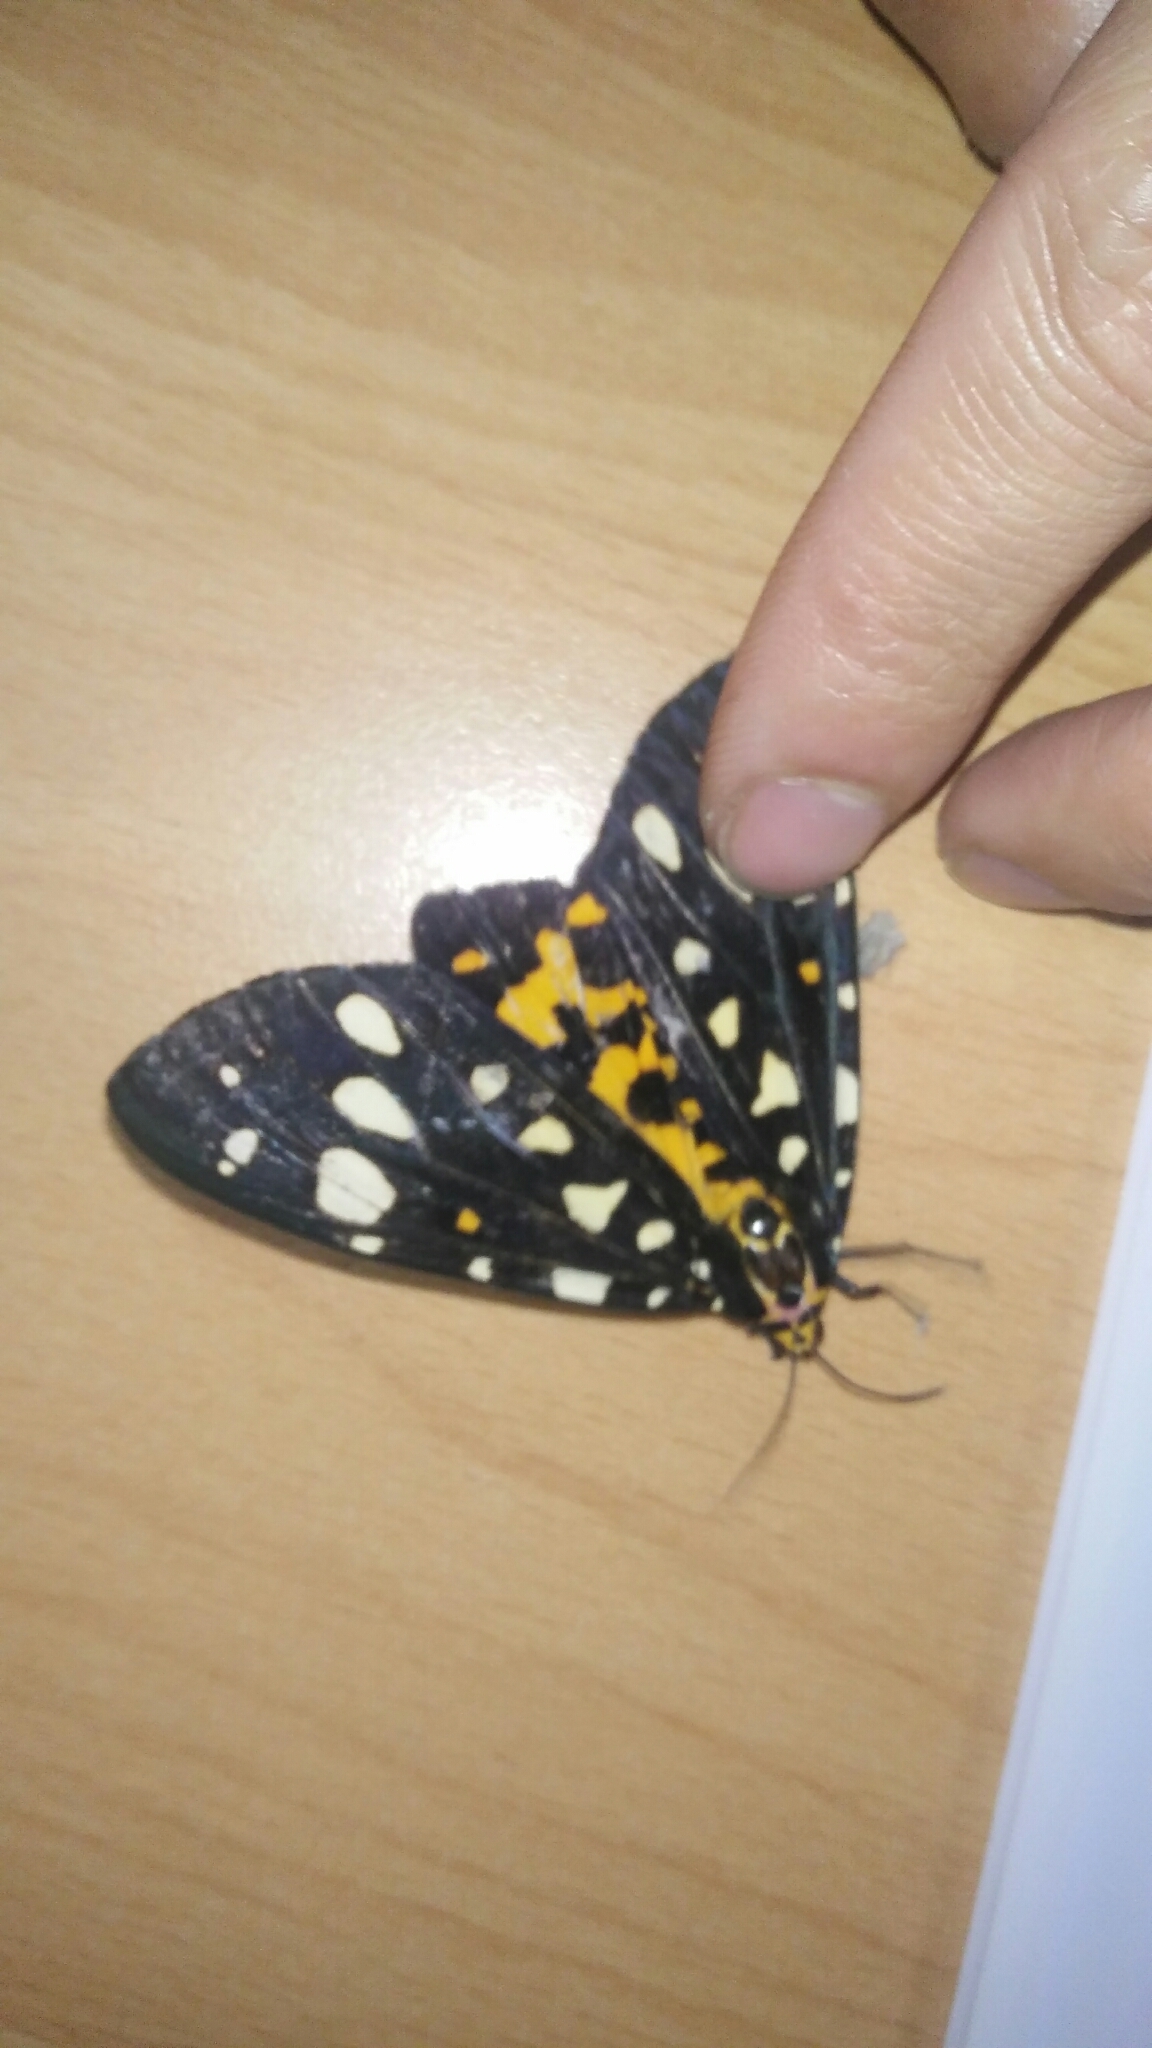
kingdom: Animalia
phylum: Arthropoda
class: Insecta
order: Lepidoptera
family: Erebidae
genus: Aglaomorpha
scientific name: Aglaomorpha histrio
